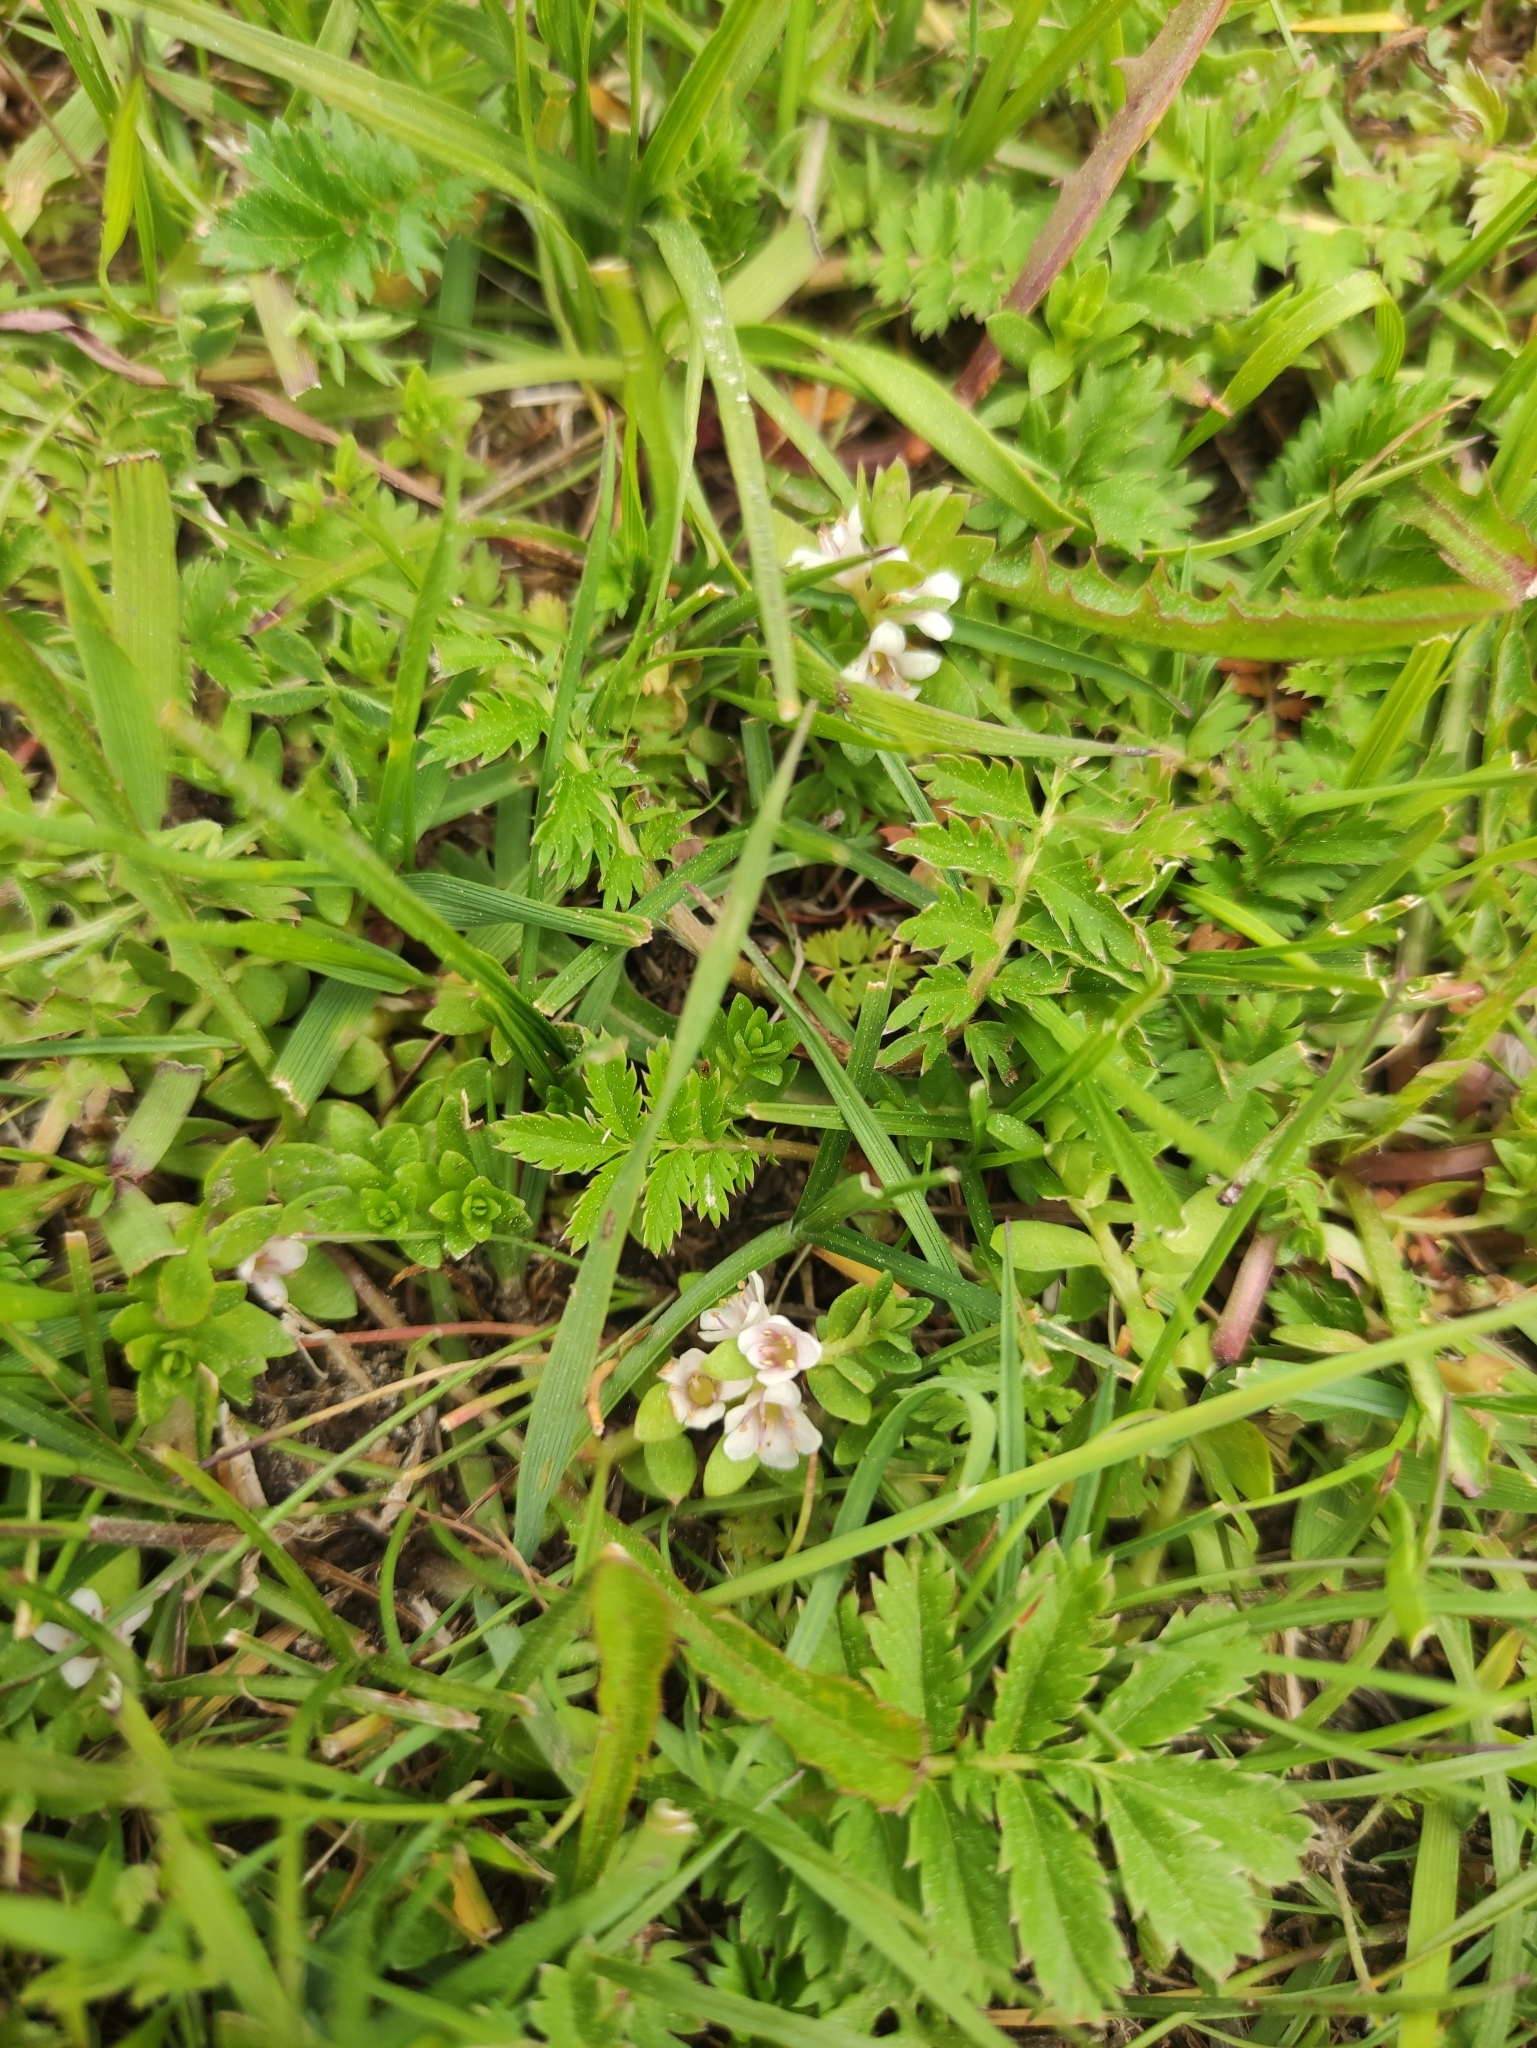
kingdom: Plantae
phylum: Tracheophyta
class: Magnoliopsida
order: Ericales
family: Primulaceae
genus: Lysimachia
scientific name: Lysimachia maritima
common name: Sea milkwort
